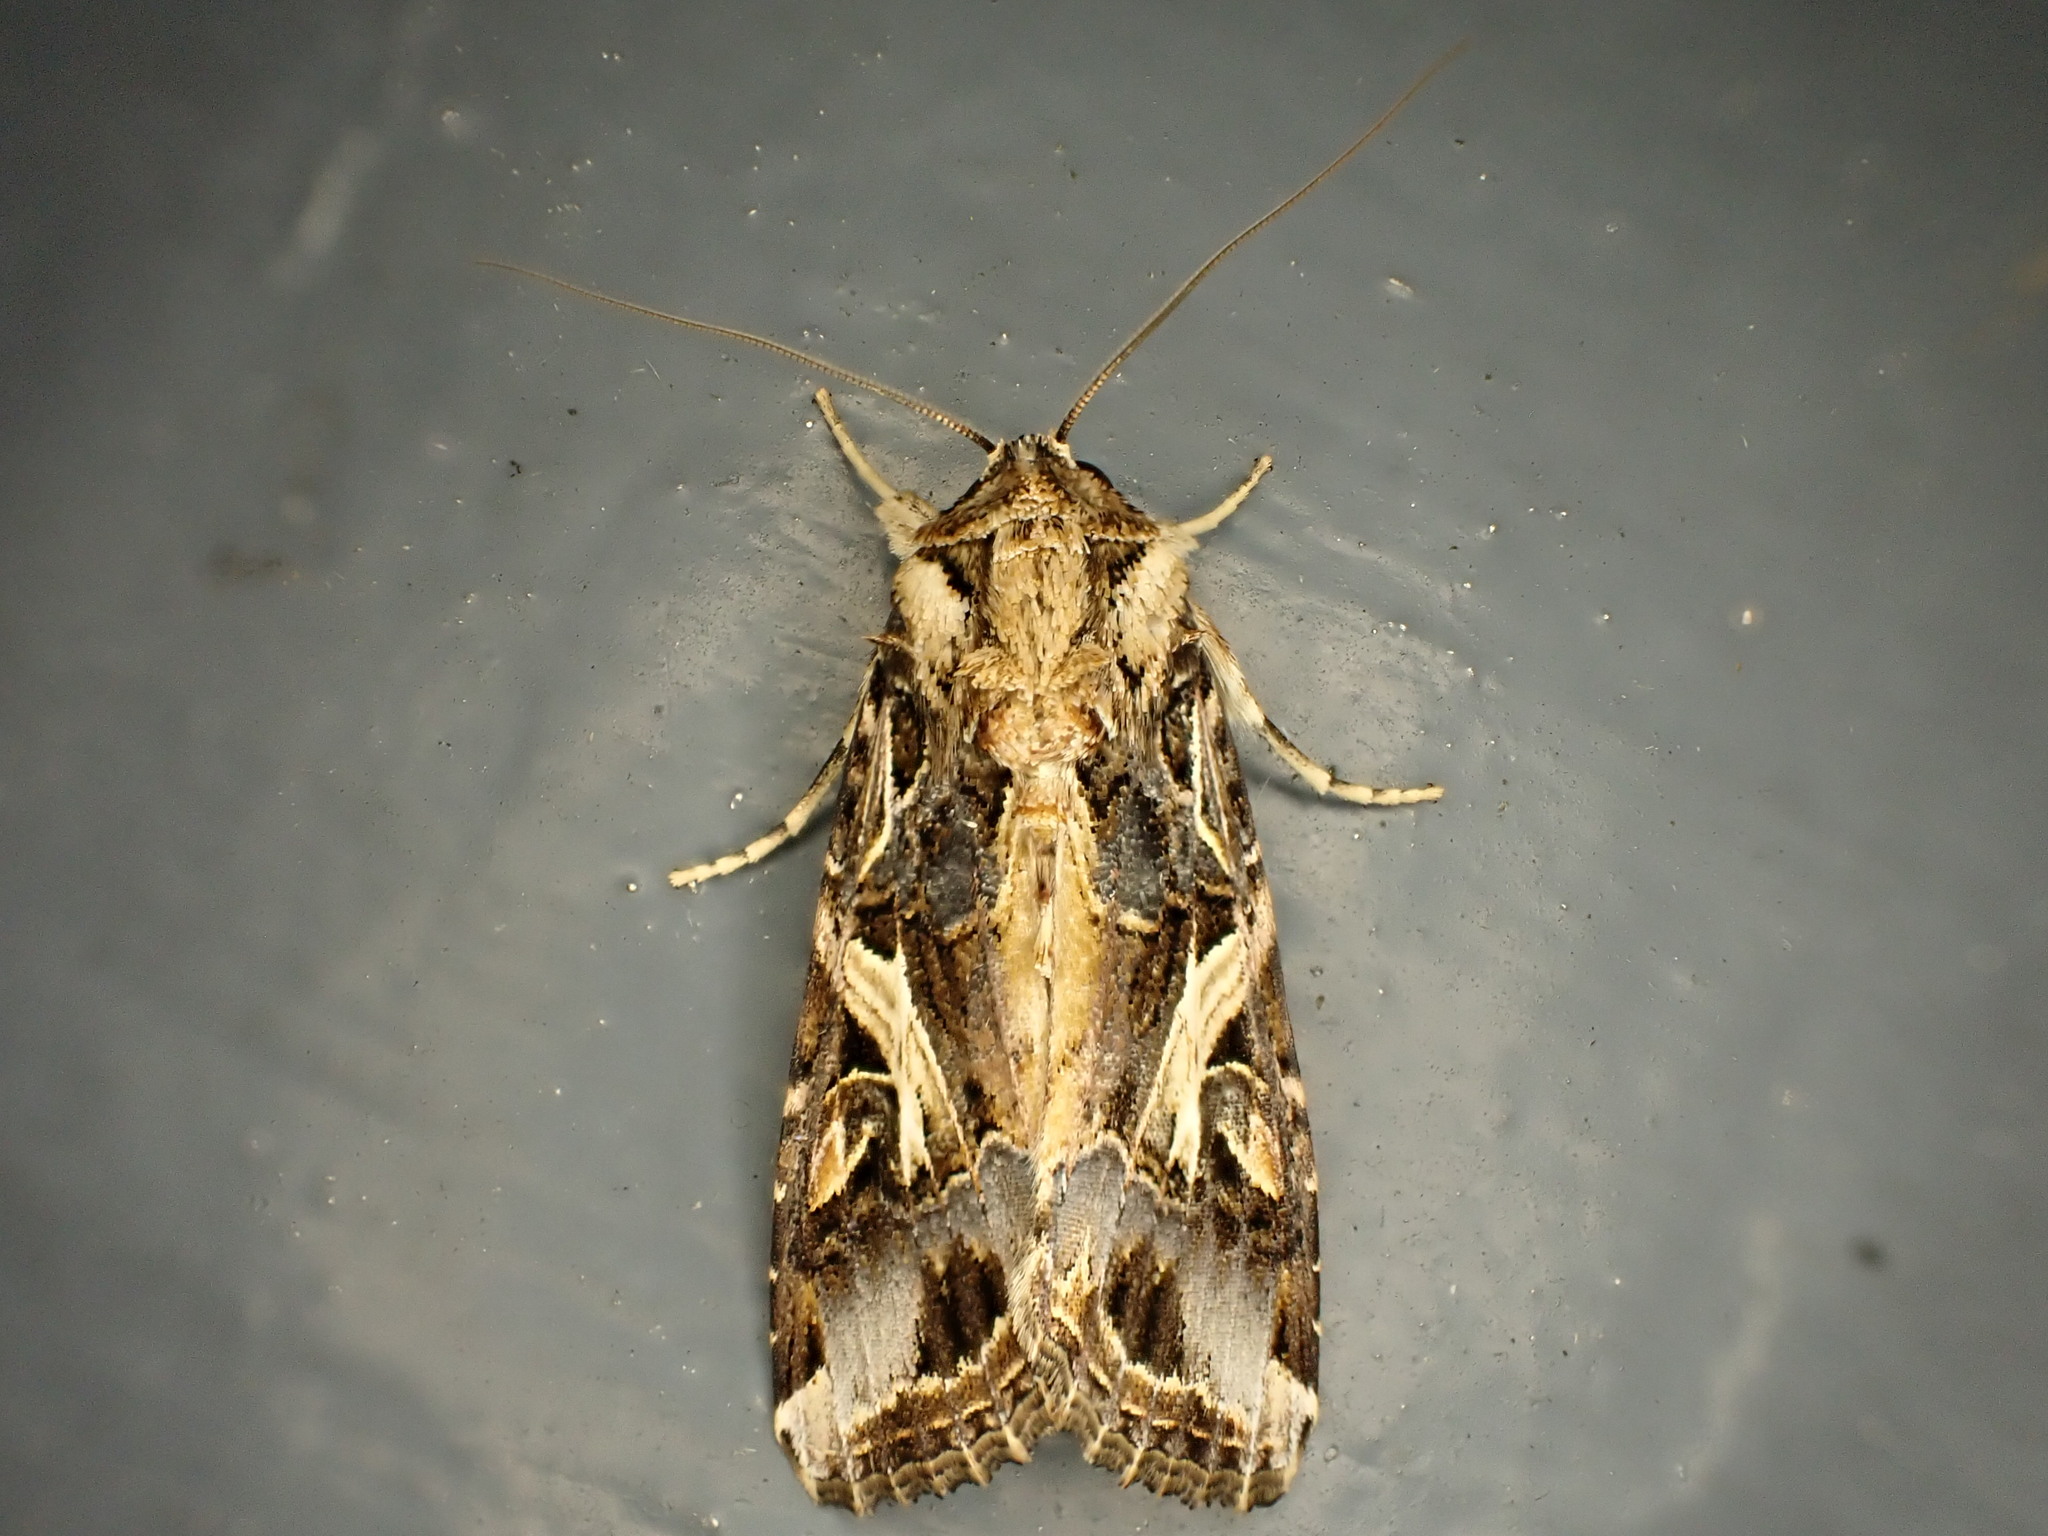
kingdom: Animalia
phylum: Arthropoda
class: Insecta
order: Lepidoptera
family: Noctuidae
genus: Spodoptera
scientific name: Spodoptera litura
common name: Asian cotton leafworm
